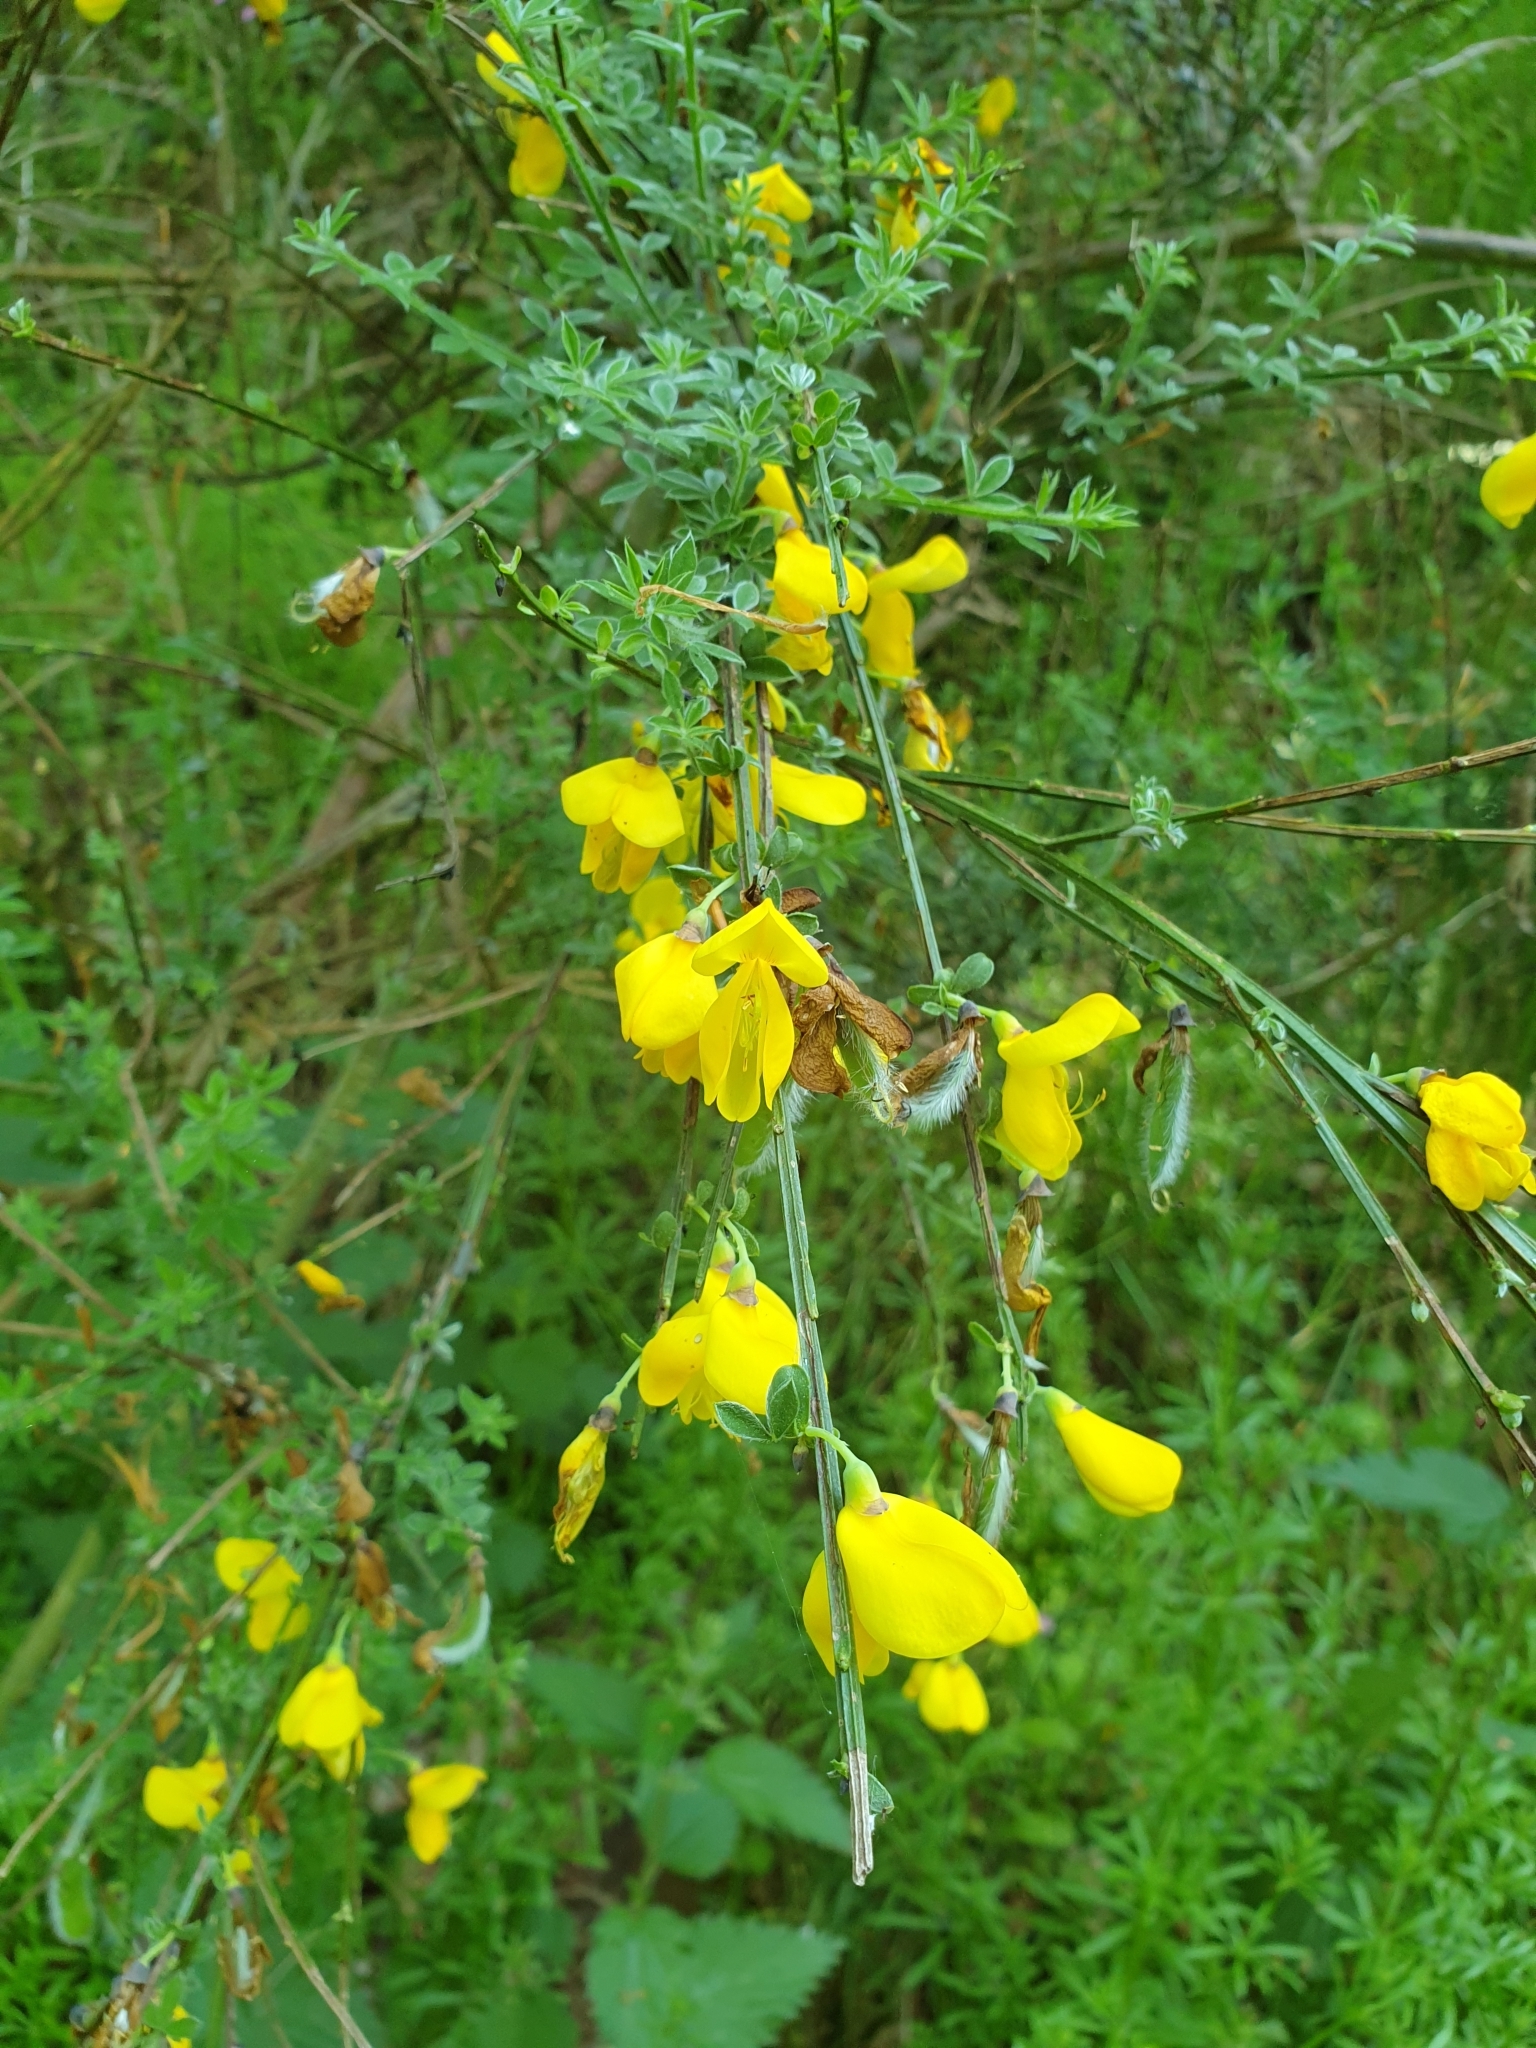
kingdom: Plantae
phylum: Tracheophyta
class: Magnoliopsida
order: Fabales
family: Fabaceae
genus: Cytisus
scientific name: Cytisus scoparius
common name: Scotch broom
